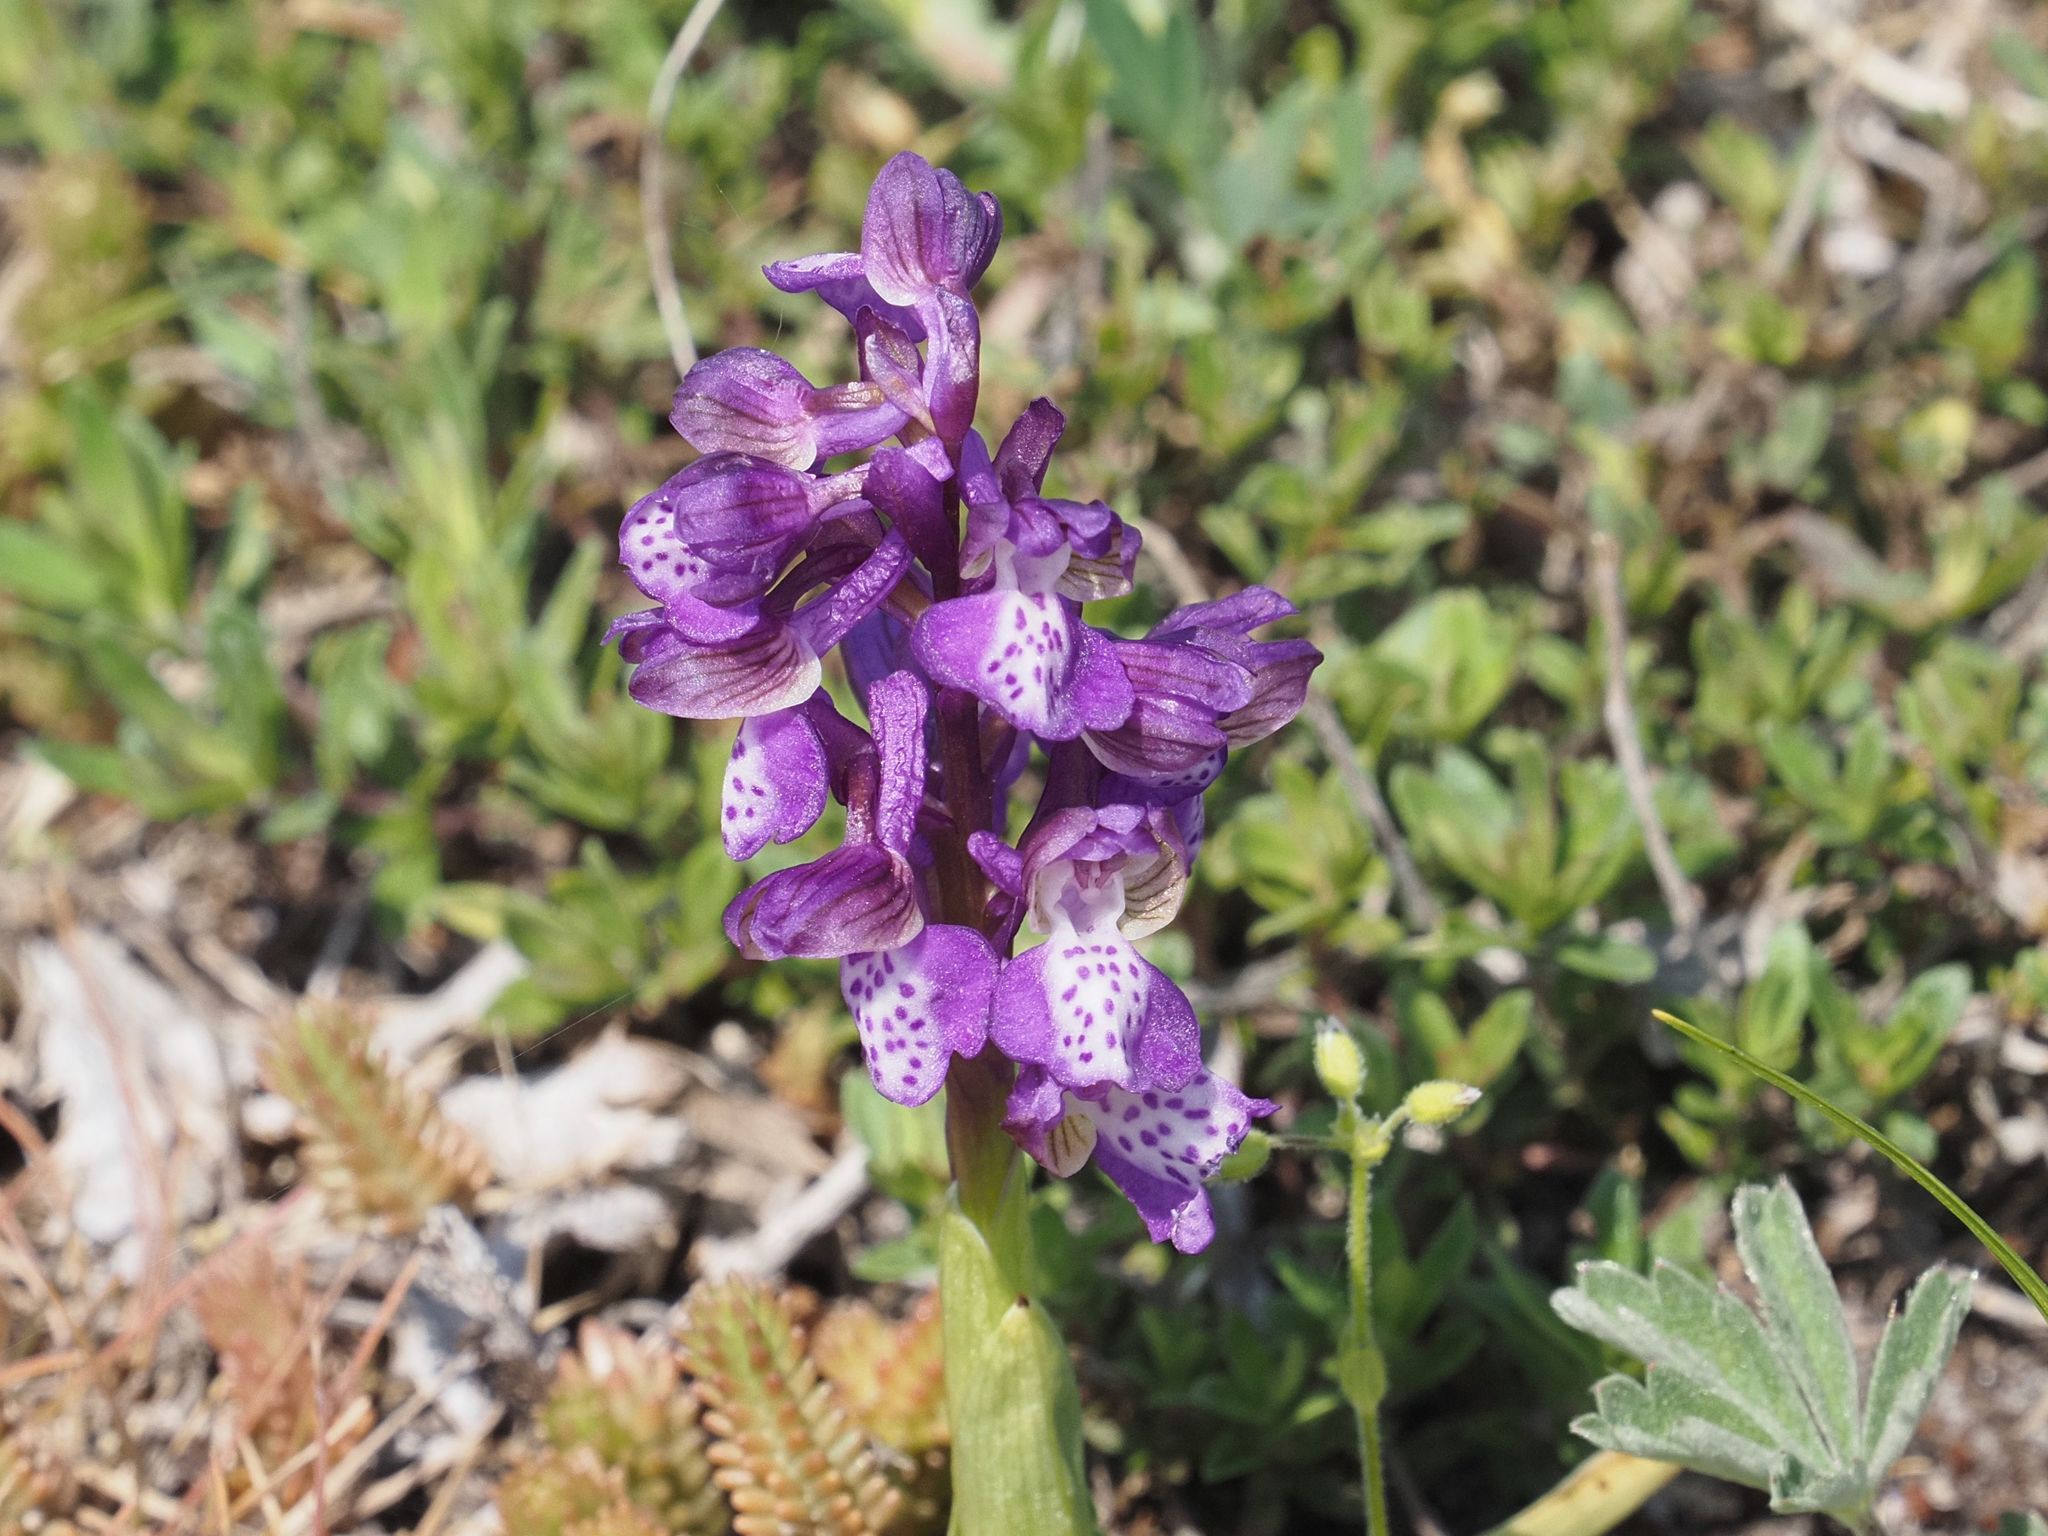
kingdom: Plantae
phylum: Tracheophyta
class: Liliopsida
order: Asparagales
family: Orchidaceae
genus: Anacamptis
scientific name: Anacamptis morio
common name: Green-winged orchid
